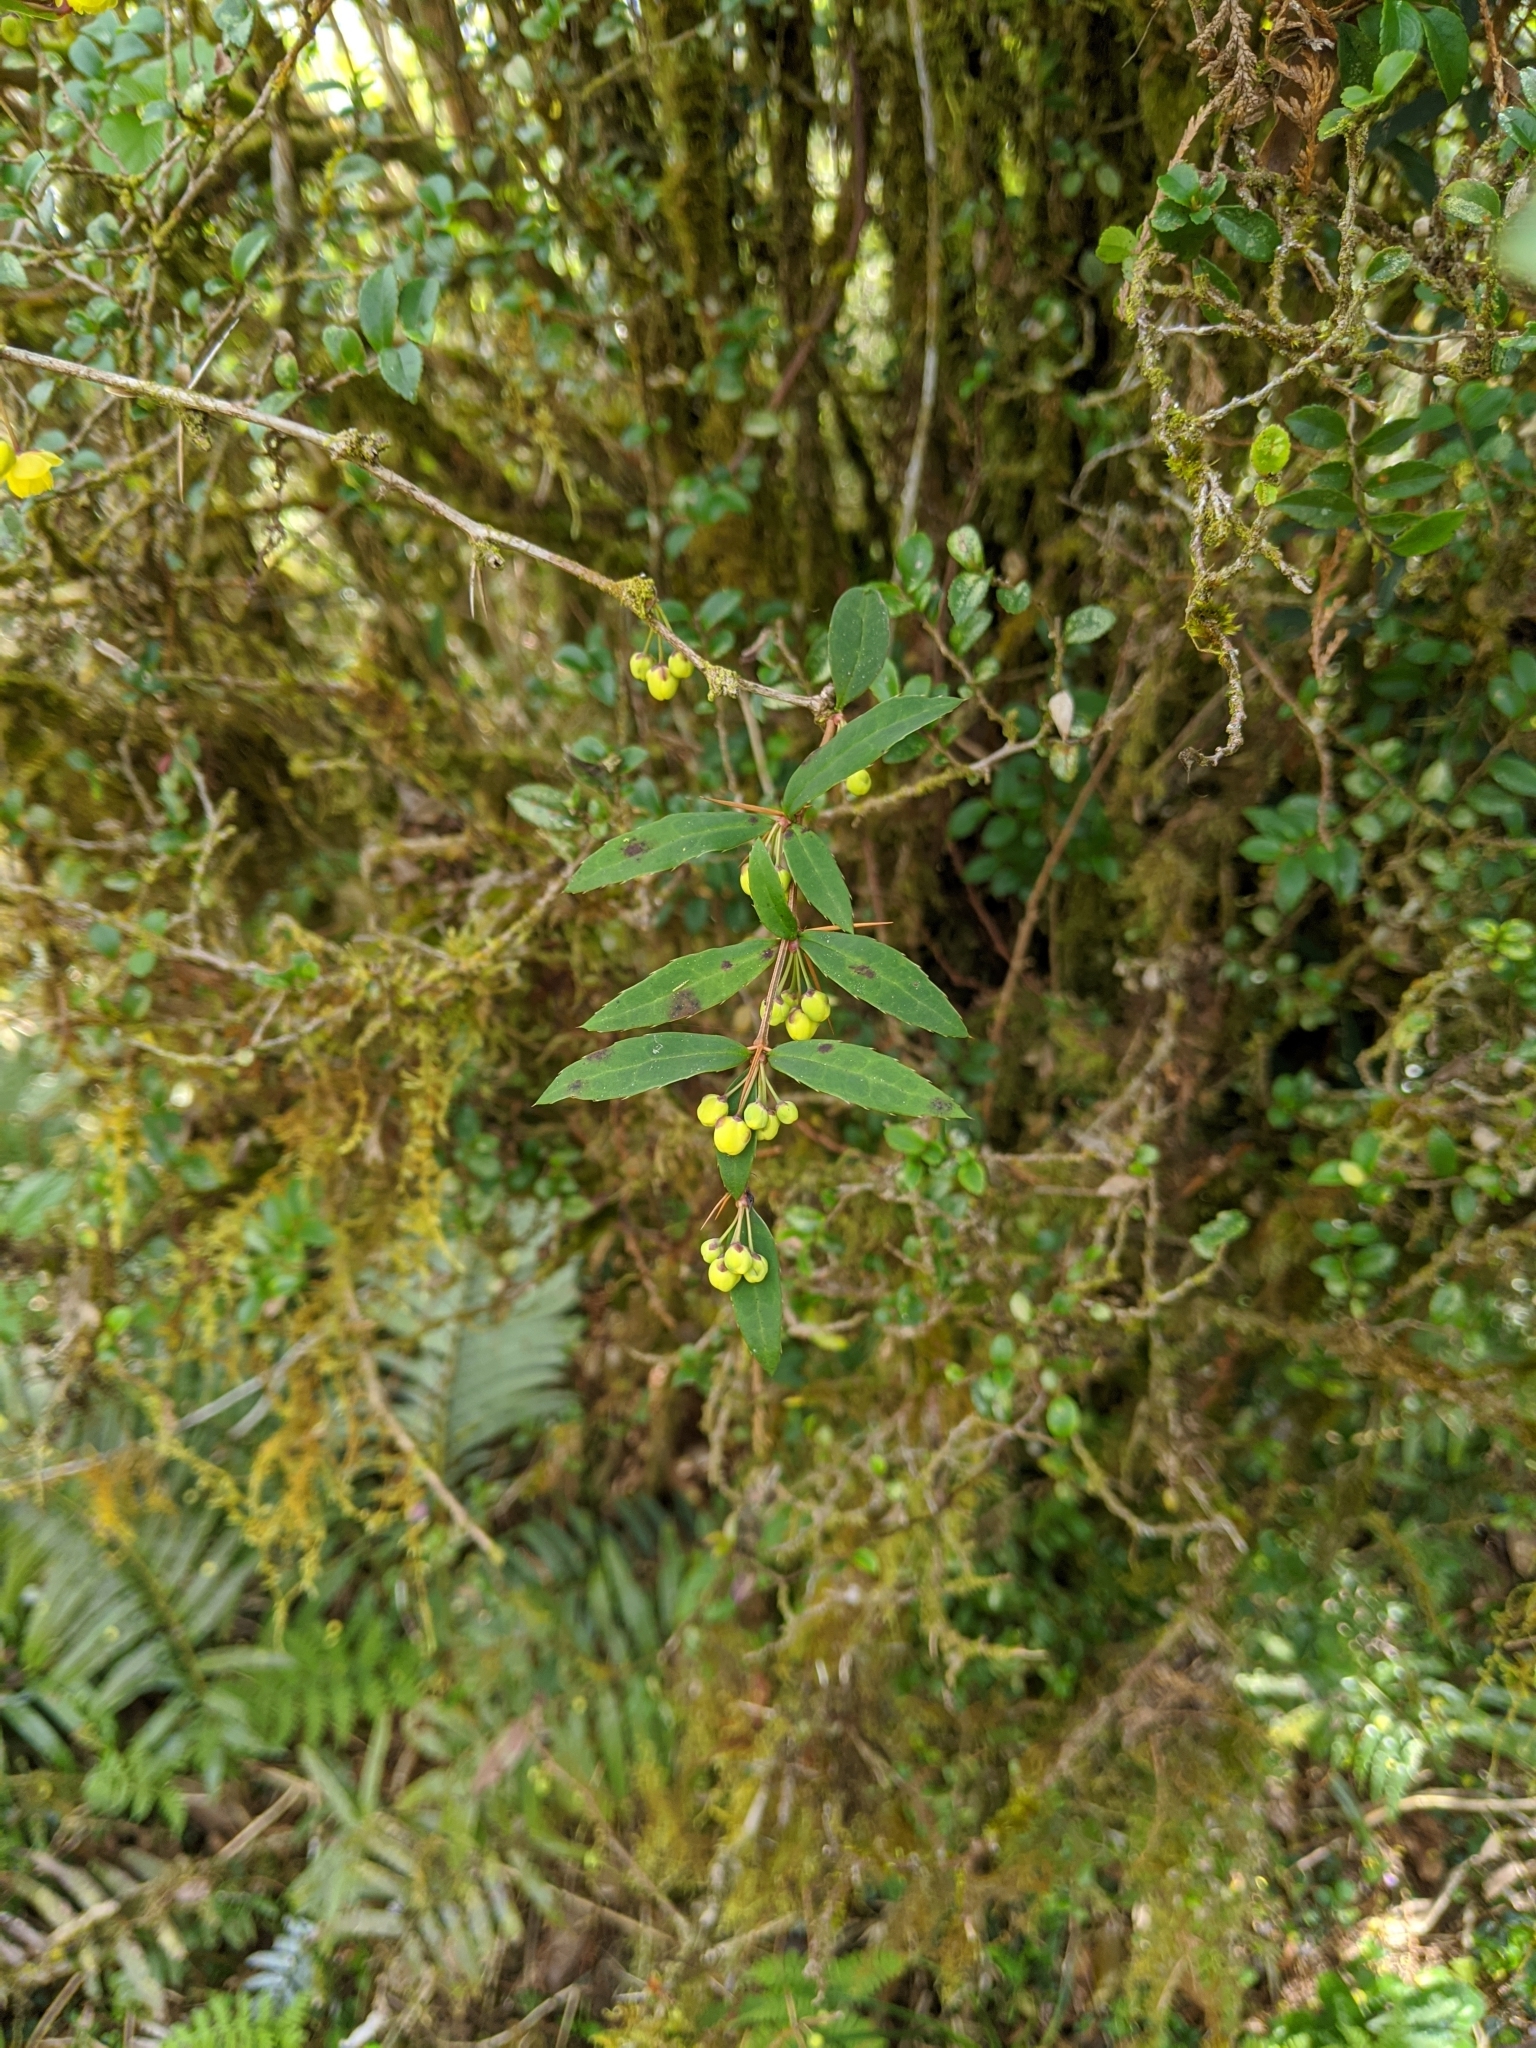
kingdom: Plantae
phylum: Tracheophyta
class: Magnoliopsida
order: Ranunculales
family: Berberidaceae
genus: Berberis
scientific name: Berberis hayatana
